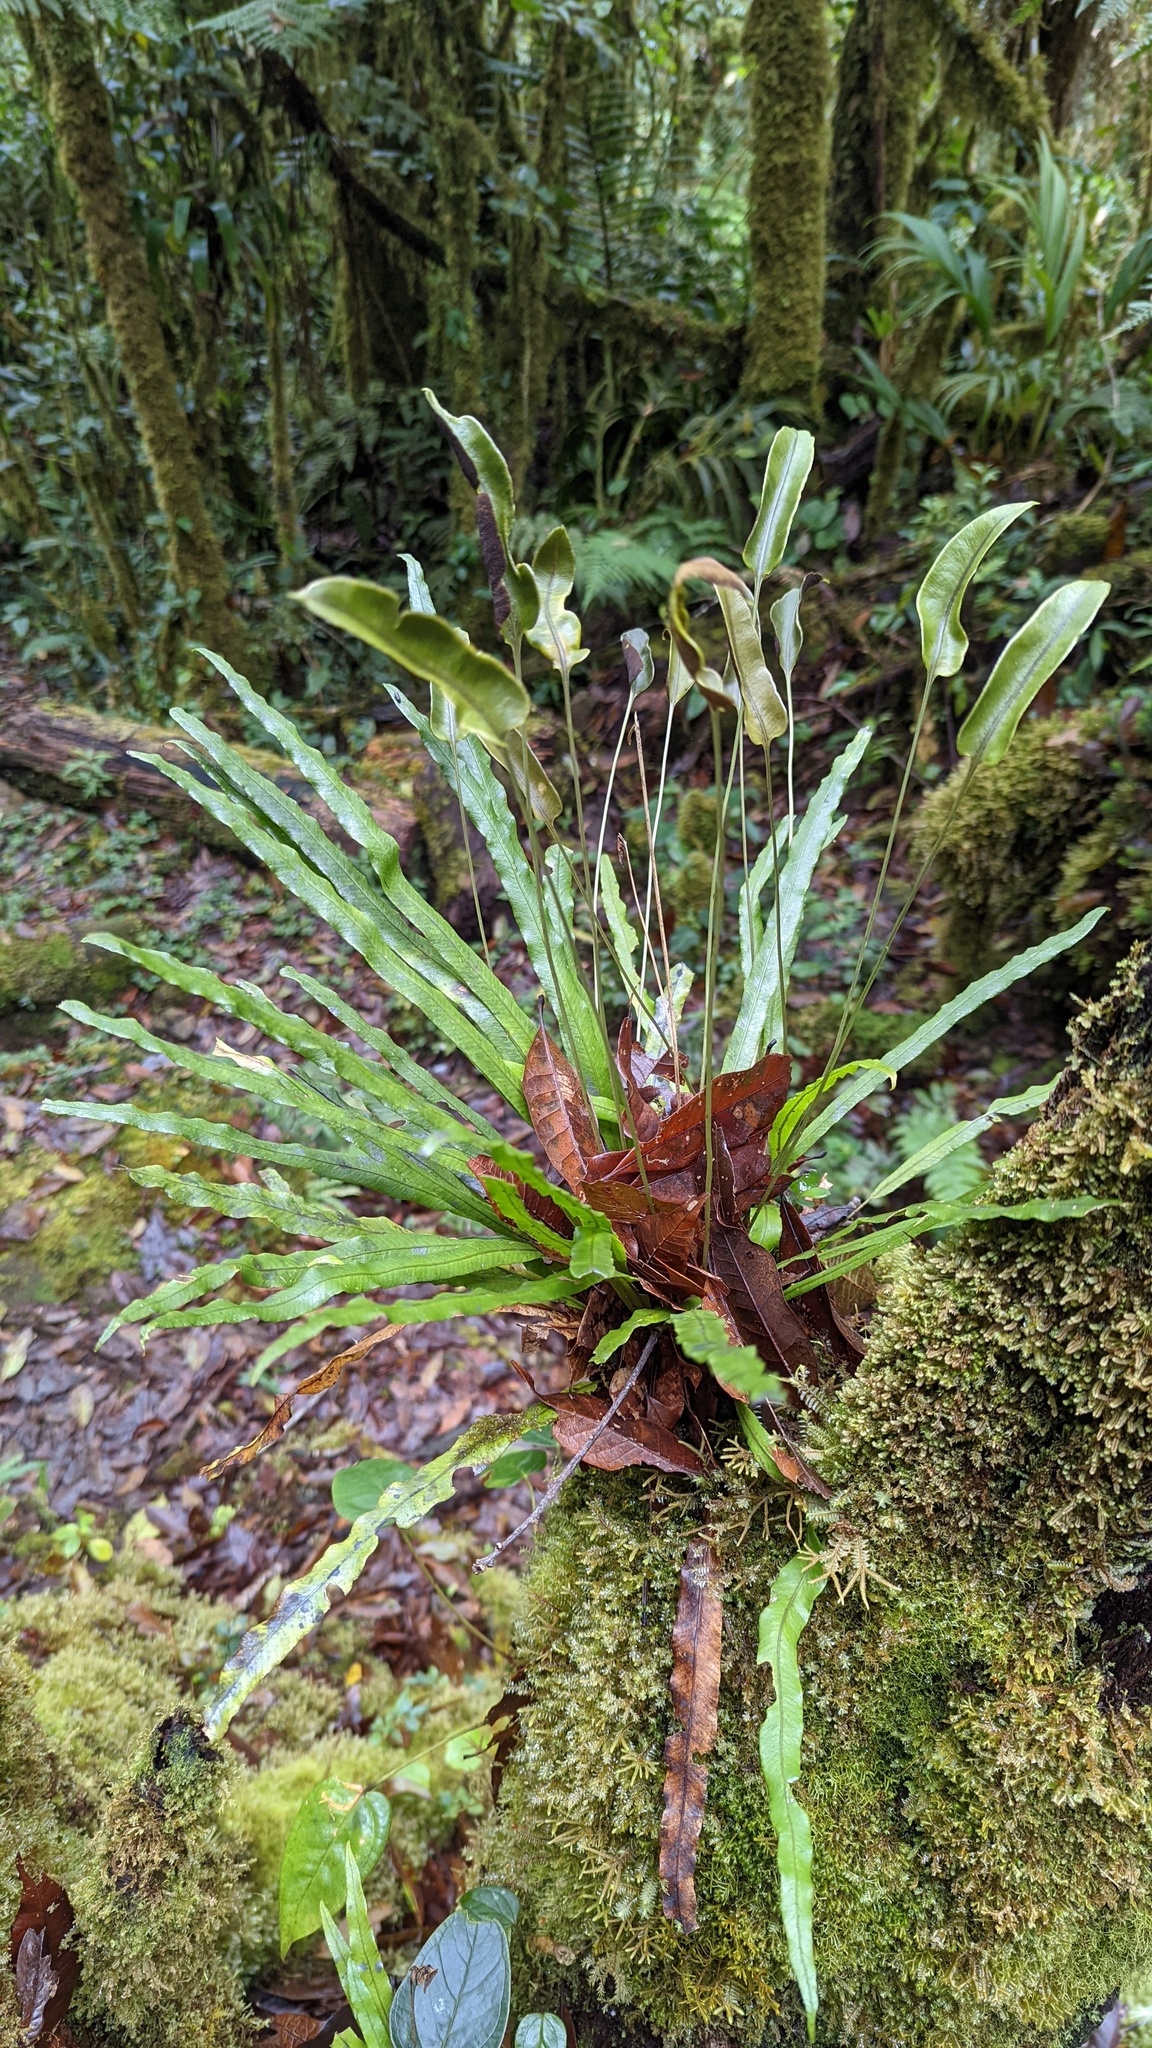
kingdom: Plantae
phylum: Tracheophyta
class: Polypodiopsida
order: Polypodiales
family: Dryopteridaceae
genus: Elaphoglossum
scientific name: Elaphoglossum eximium
